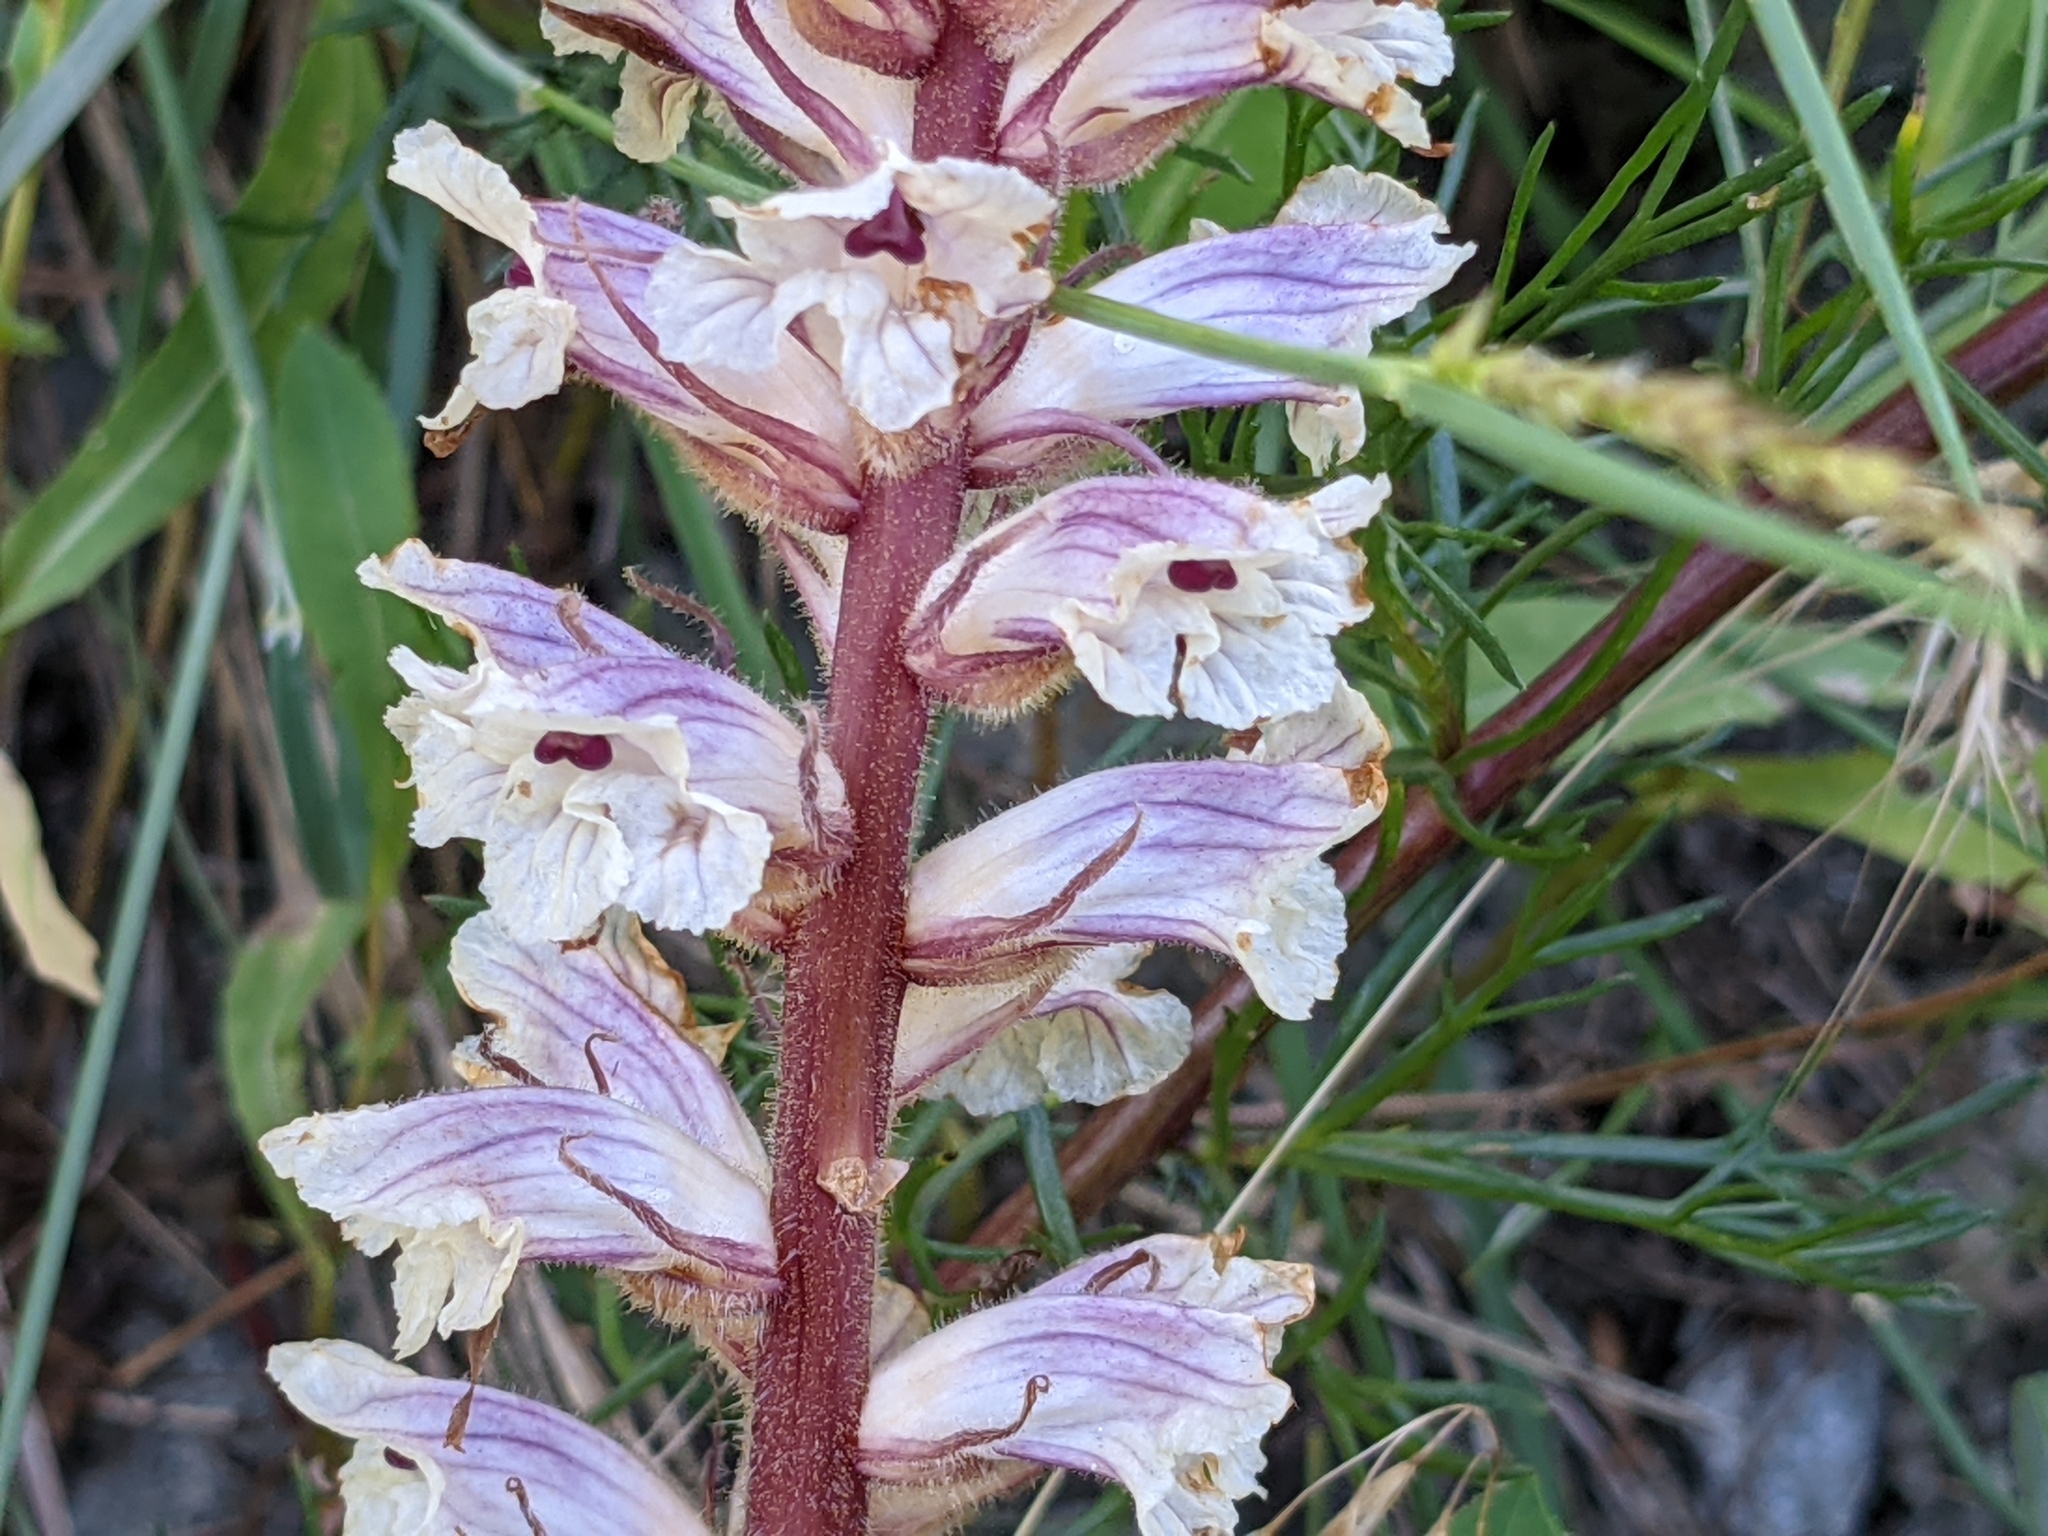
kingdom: Plantae
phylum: Tracheophyta
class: Magnoliopsida
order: Lamiales
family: Orobanchaceae
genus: Orobanche
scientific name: Orobanche artemisiae-campestris
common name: Oxtongue broomrape
